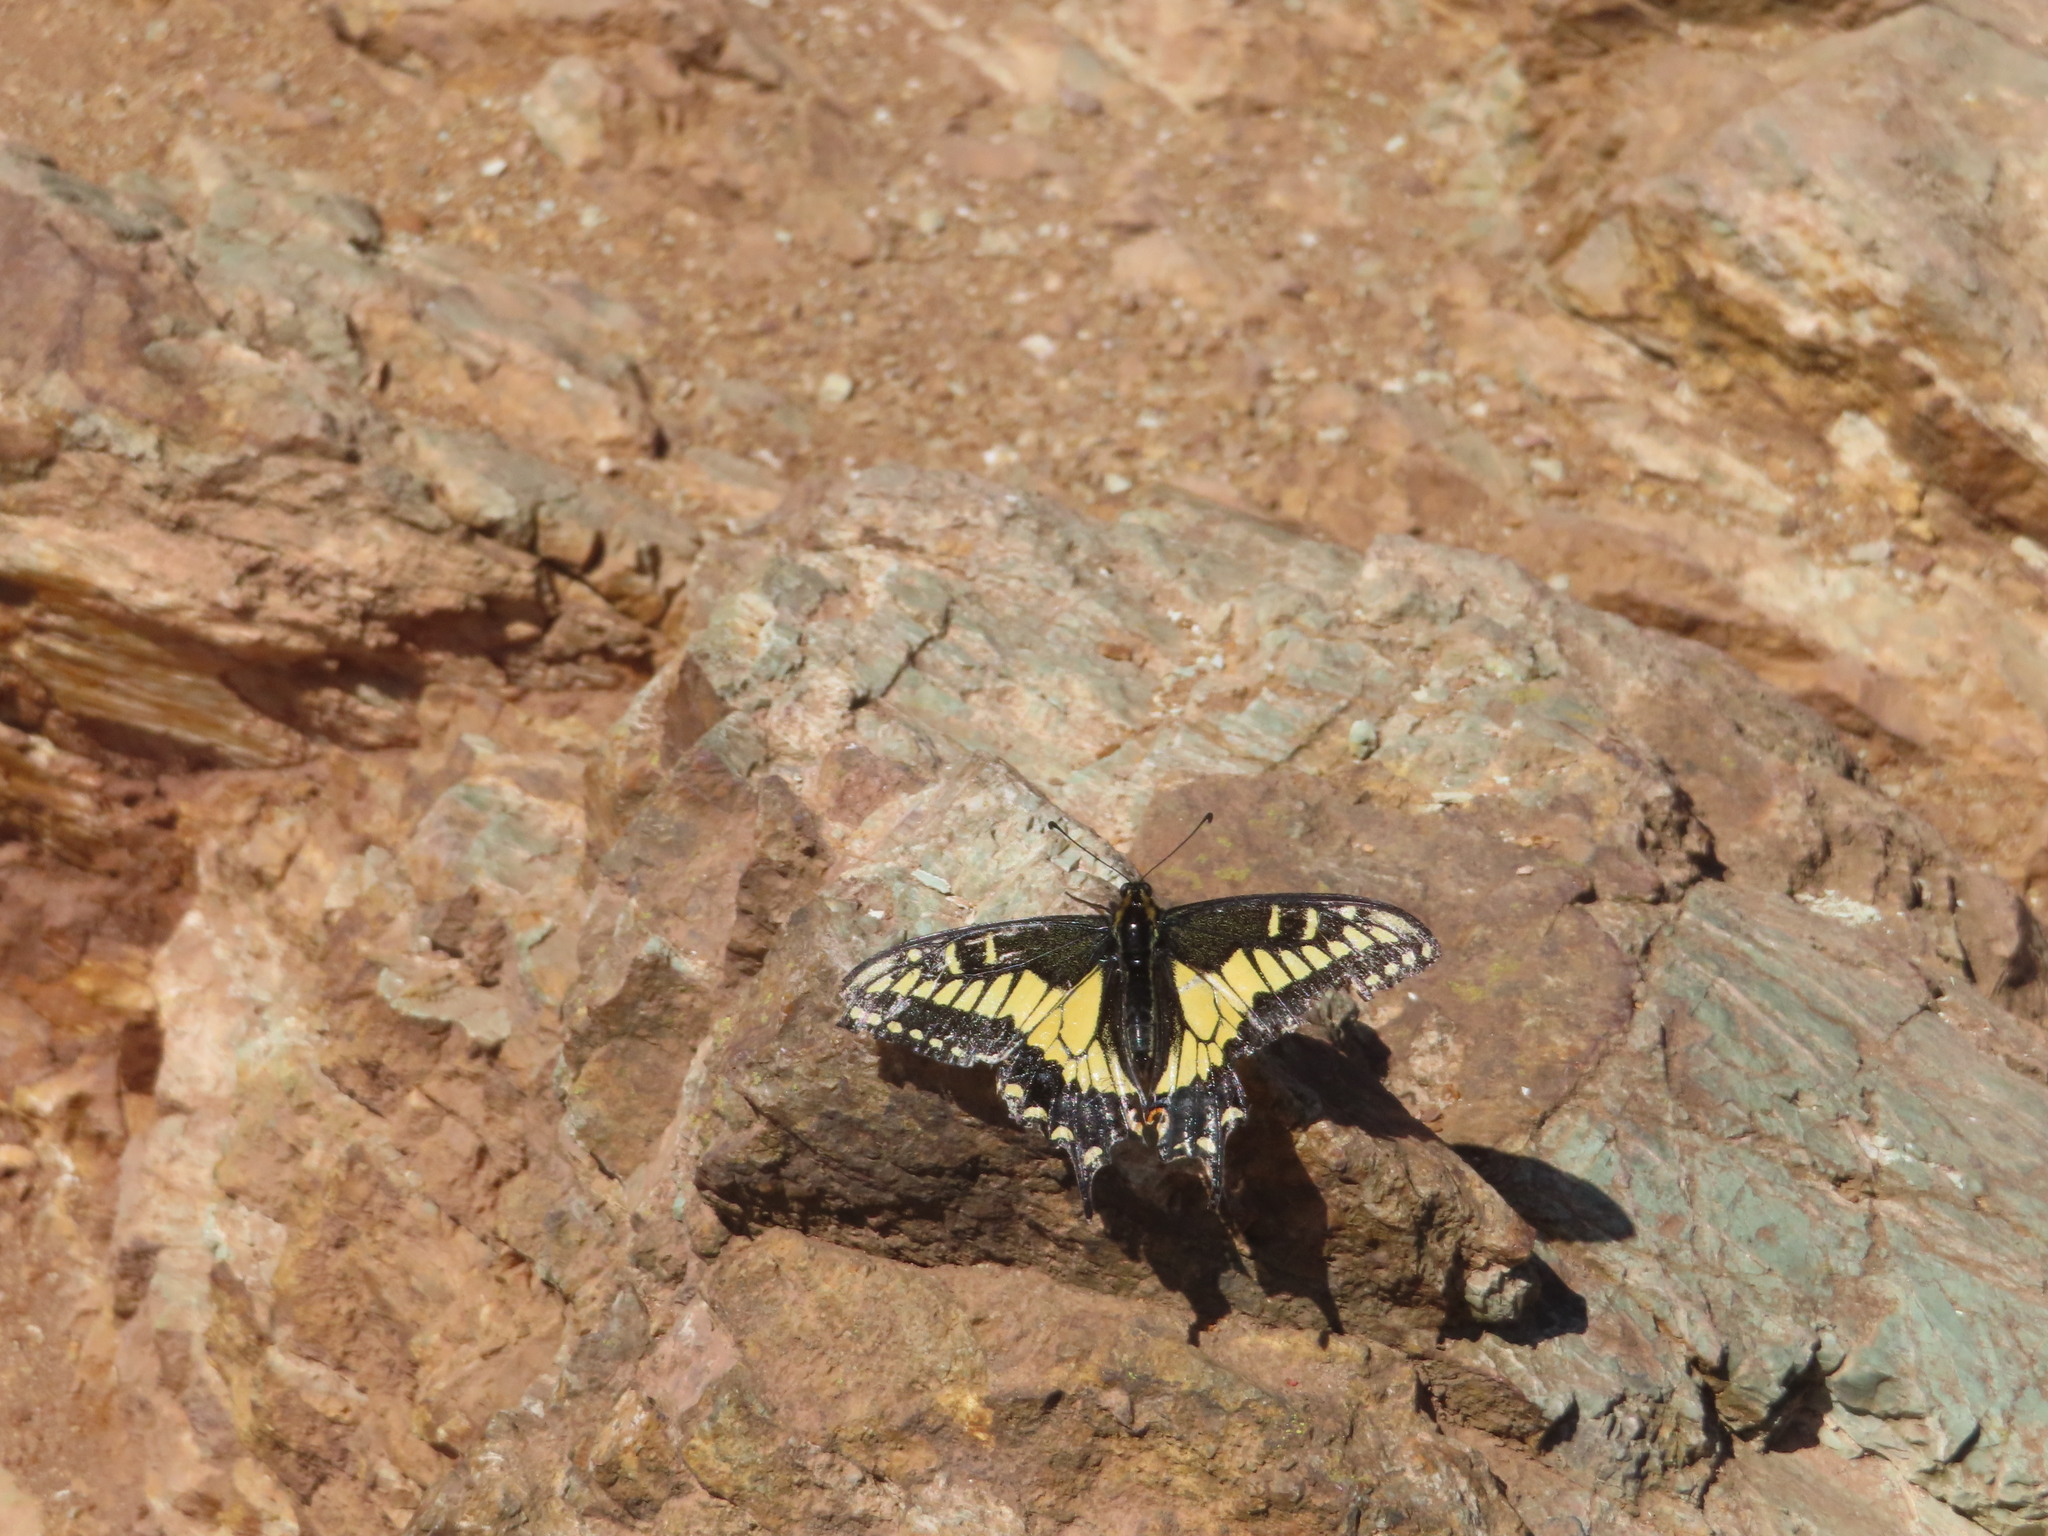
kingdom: Animalia
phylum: Arthropoda
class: Insecta
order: Lepidoptera
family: Papilionidae
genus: Papilio
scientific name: Papilio zelicaon
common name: Anise swallowtail
